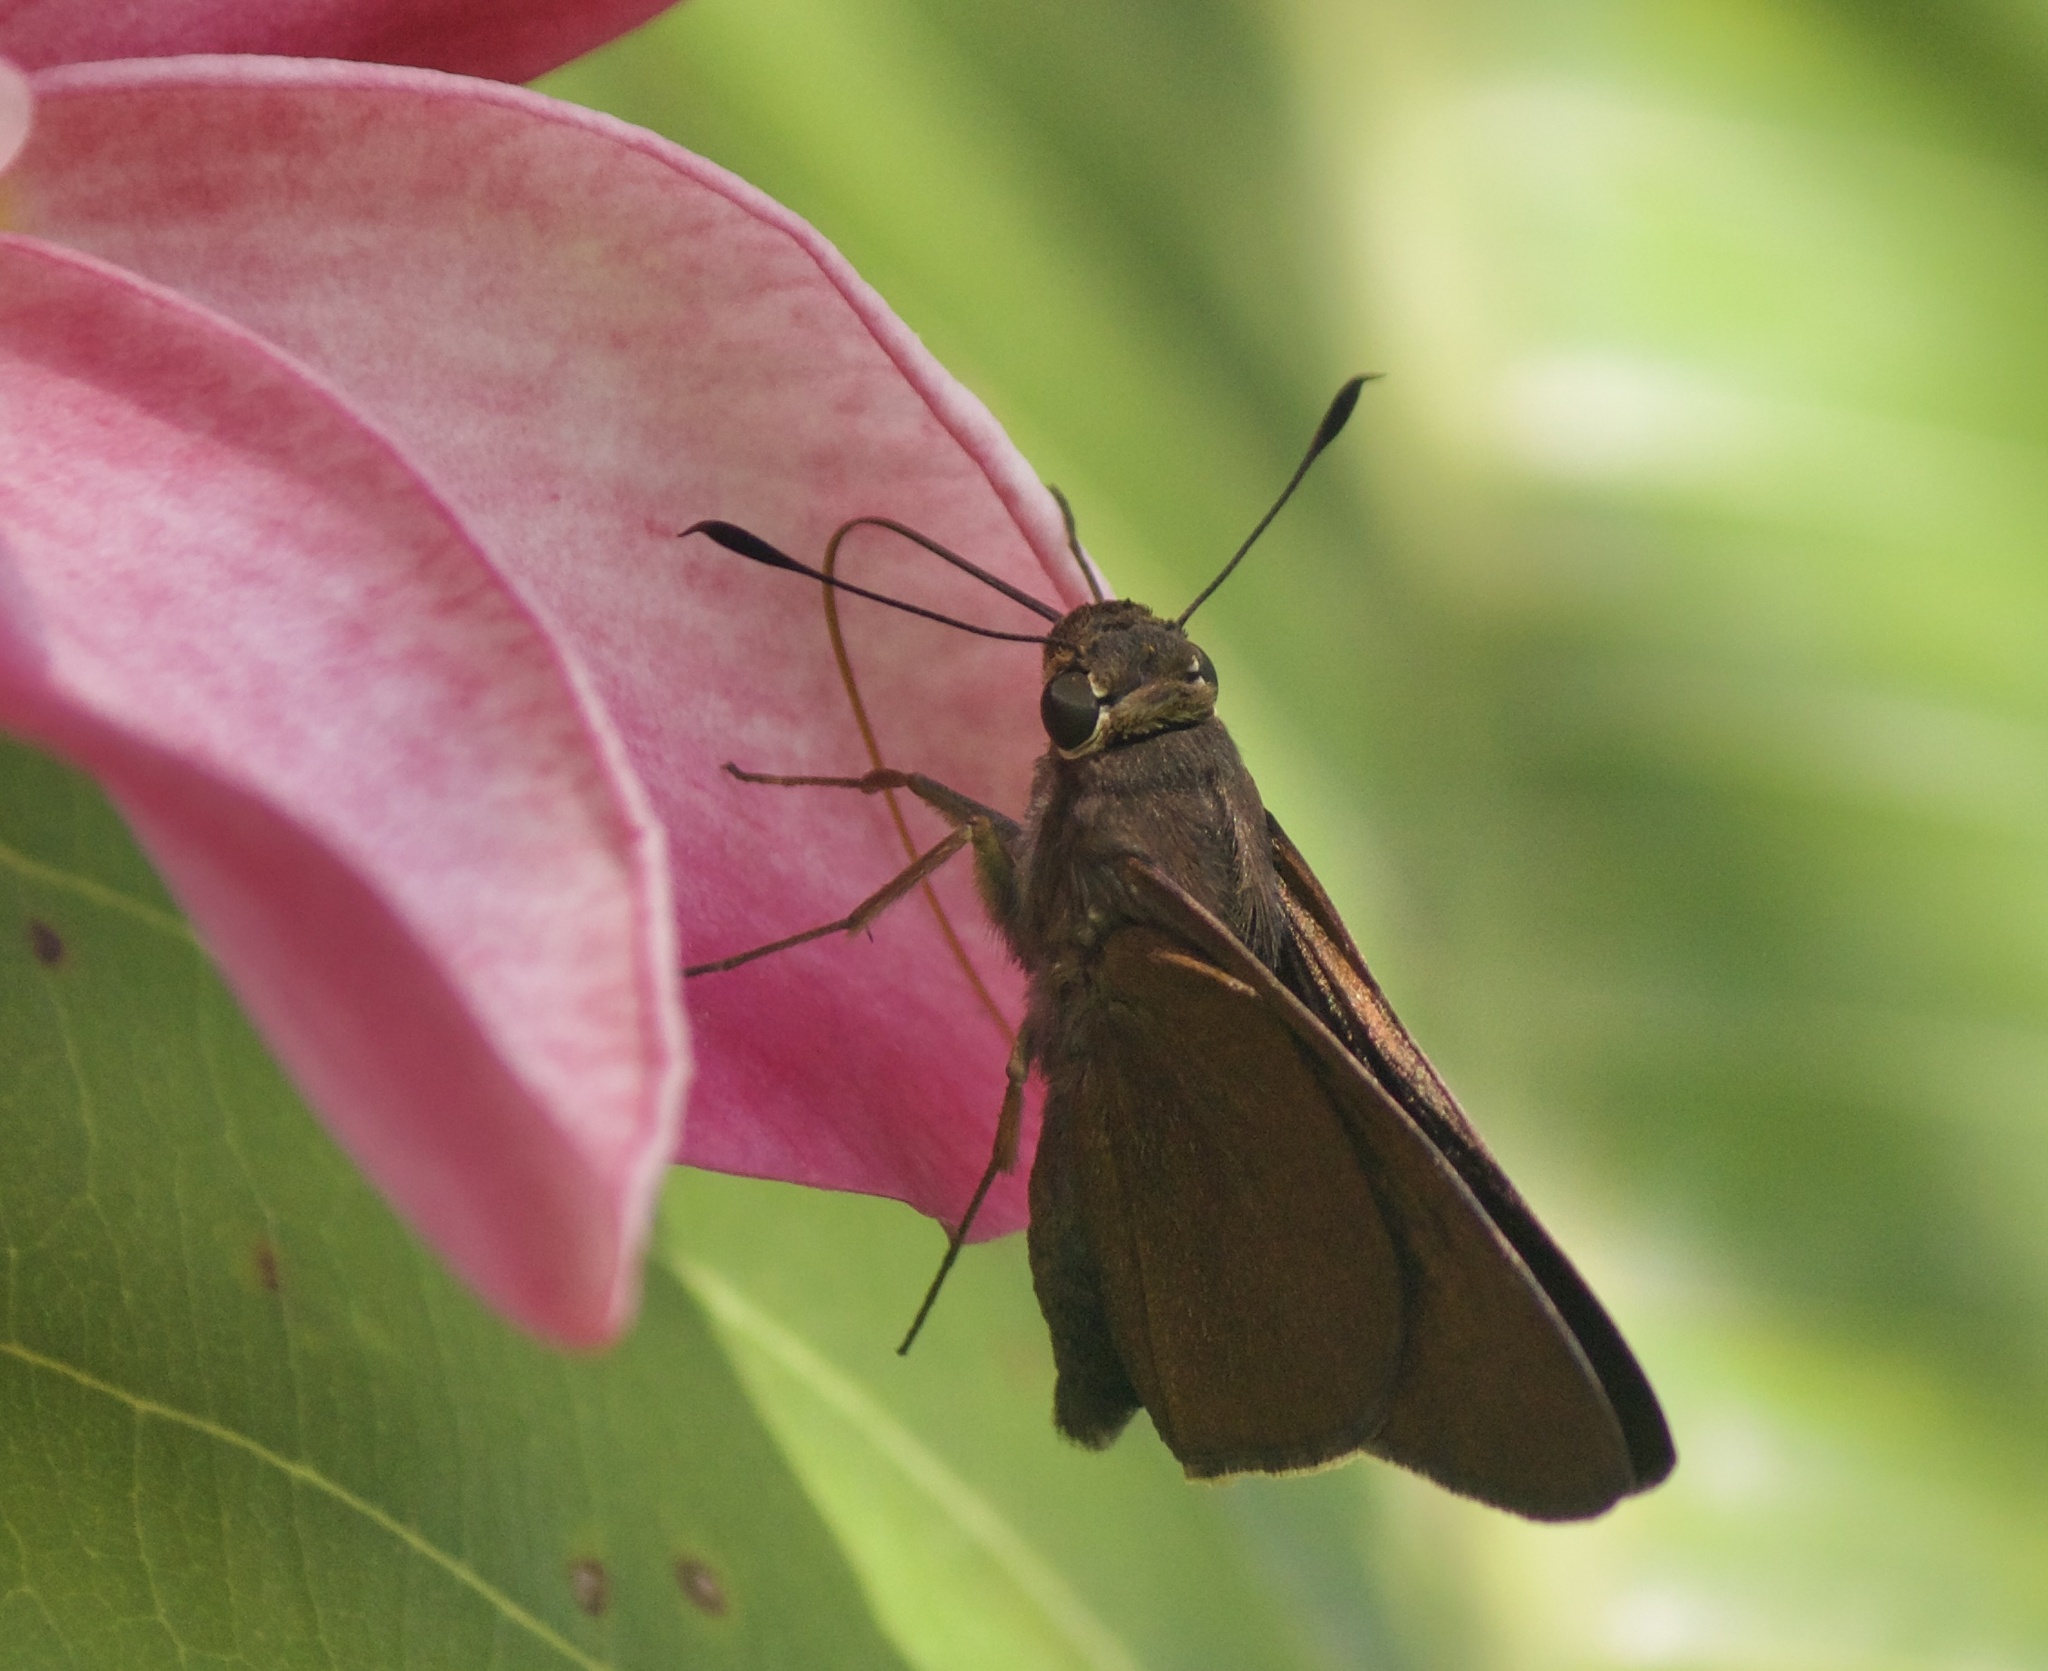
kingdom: Animalia
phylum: Arthropoda
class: Insecta
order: Lepidoptera
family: Hesperiidae
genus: Asbolis
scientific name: Asbolis capucinus
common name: Monk skipper
